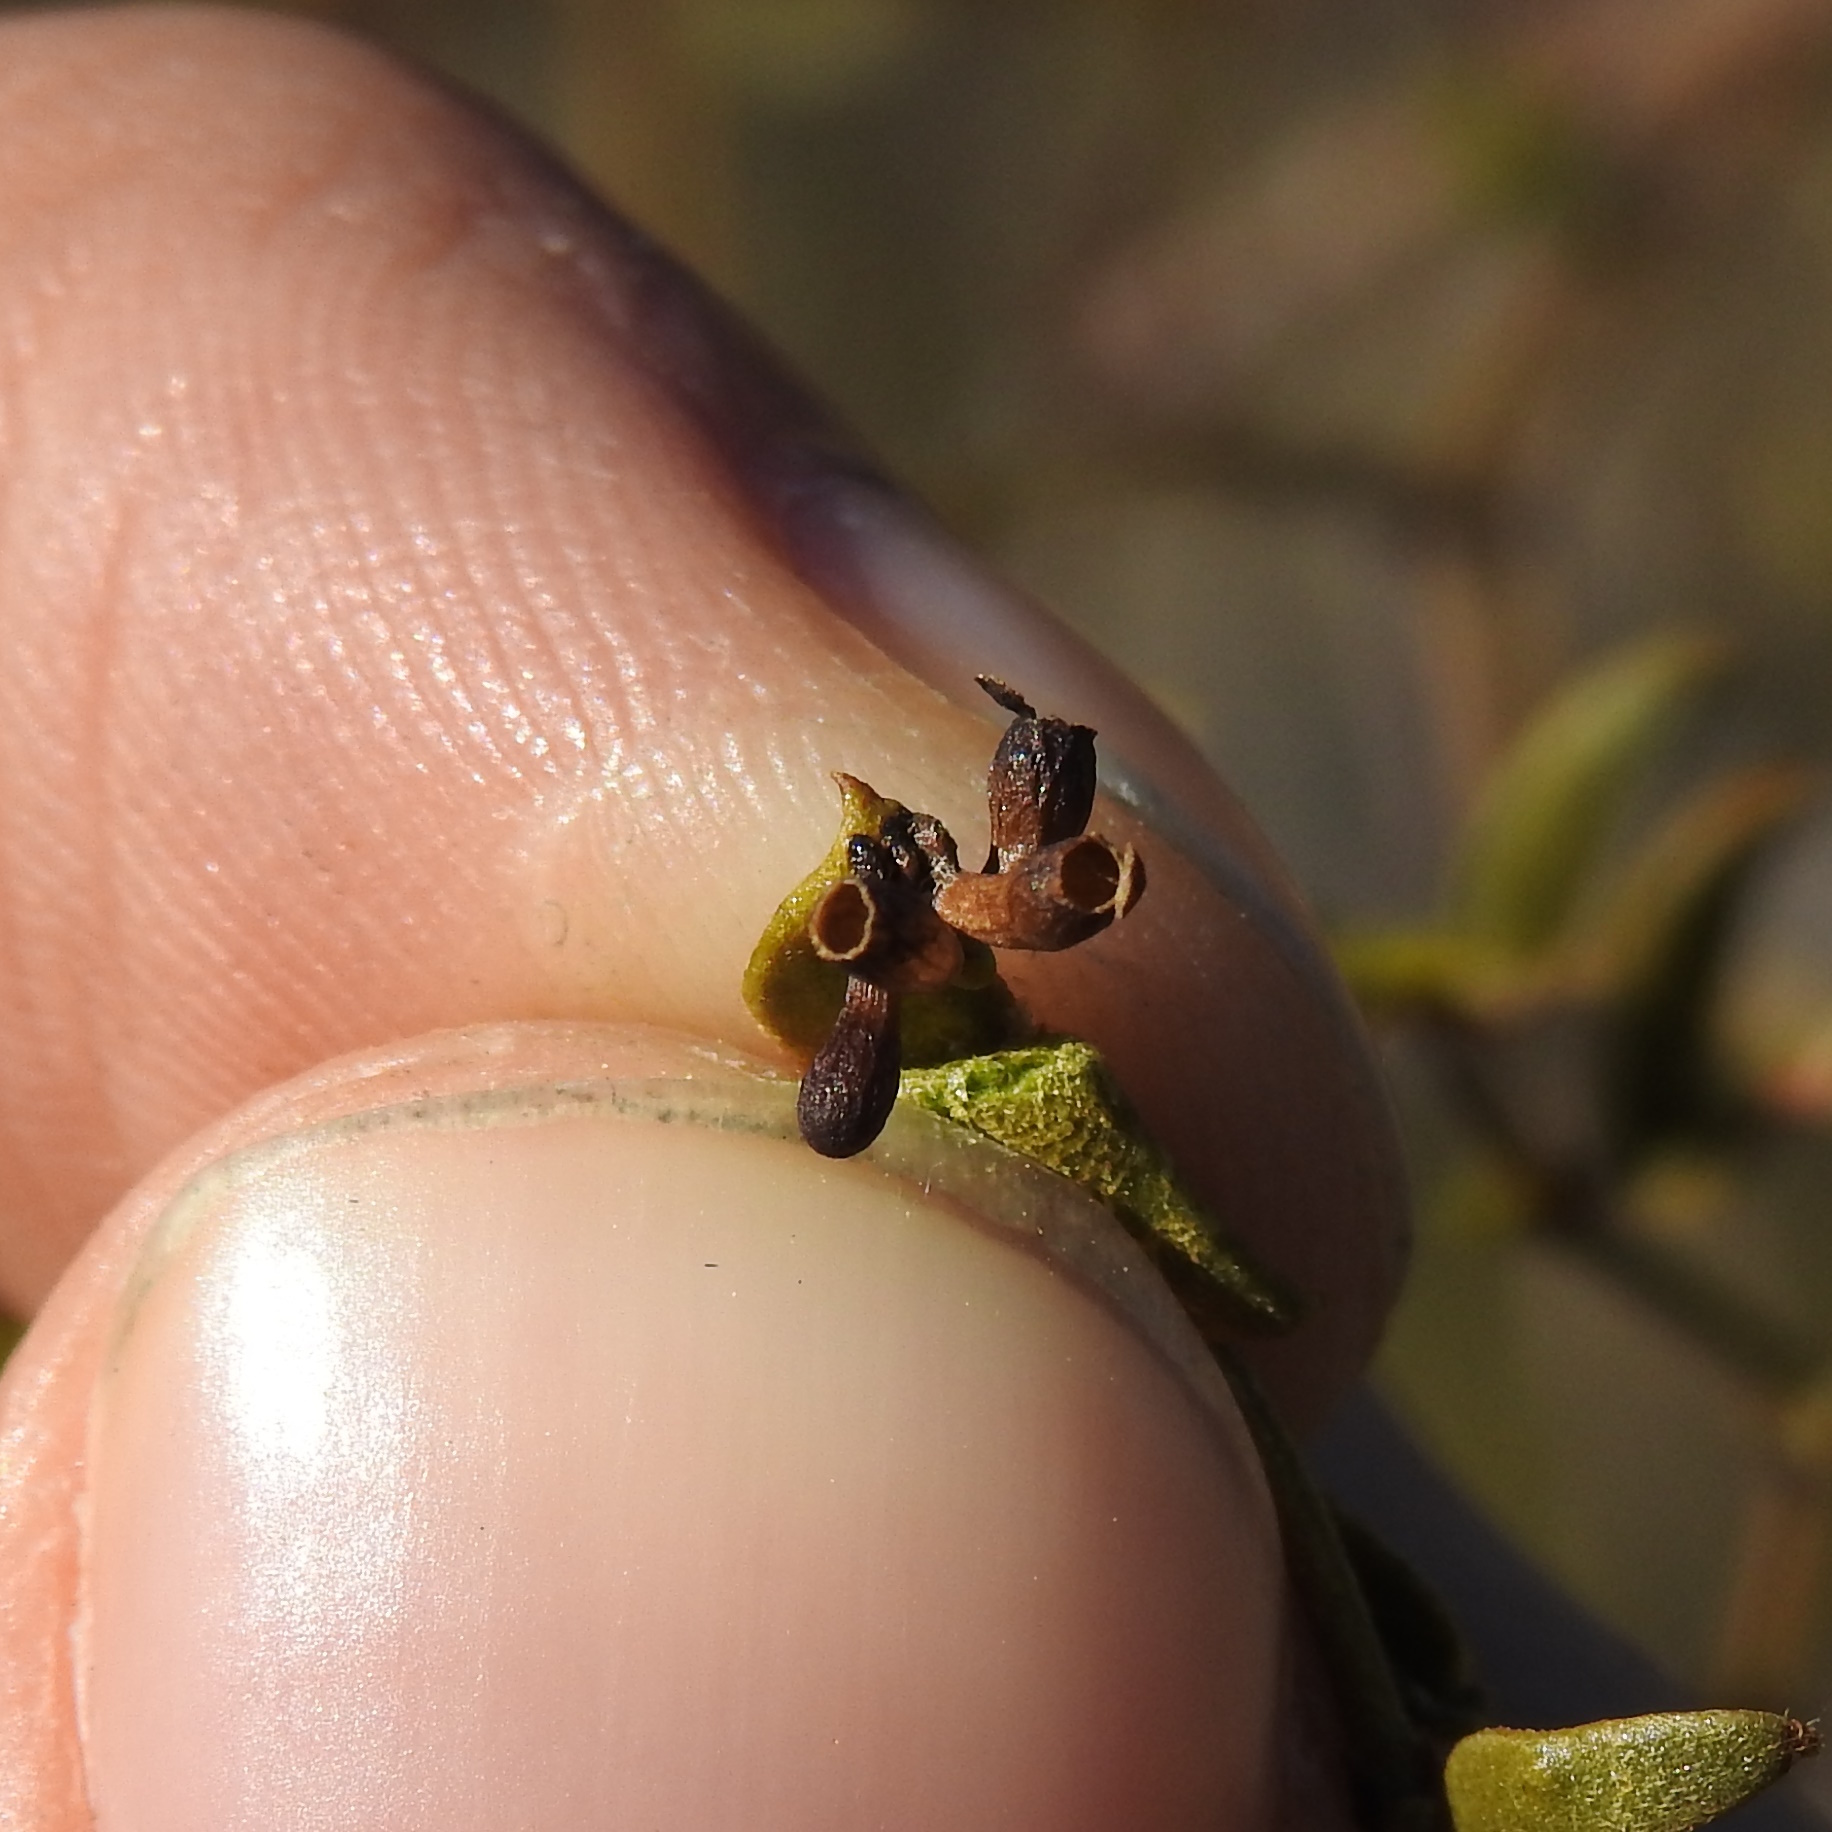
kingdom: Animalia
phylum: Arthropoda
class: Insecta
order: Diptera
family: Cecidomyiidae
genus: Asphondylia
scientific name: Asphondylia clavata
